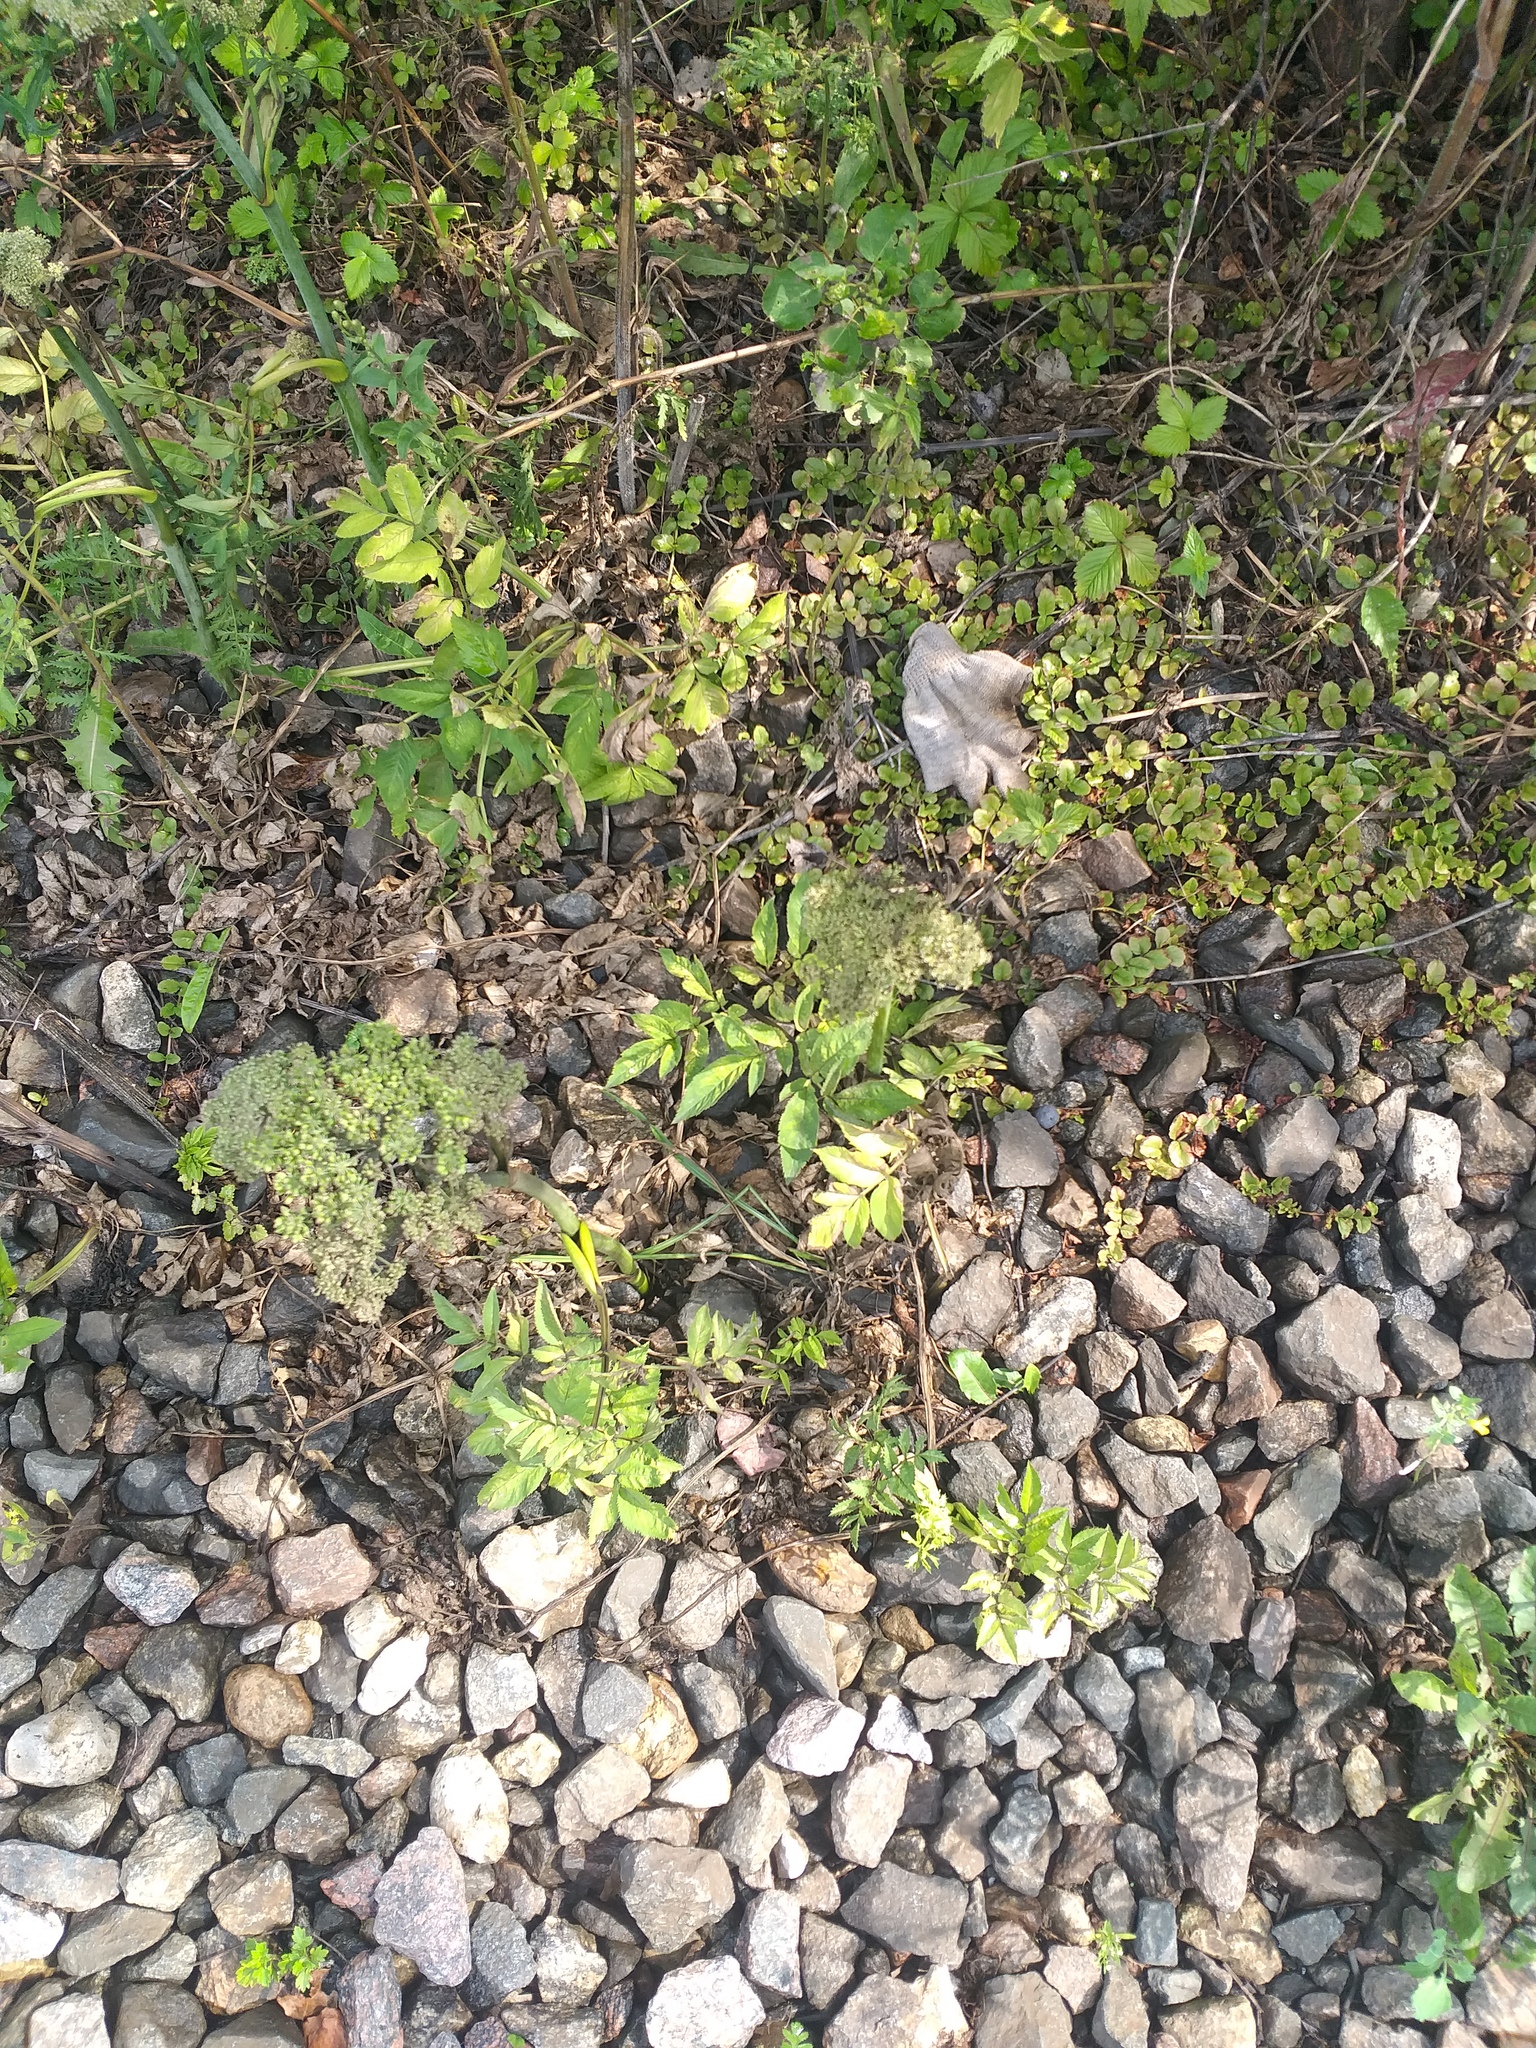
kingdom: Plantae
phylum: Tracheophyta
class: Magnoliopsida
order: Apiales
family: Apiaceae
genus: Angelica
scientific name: Angelica sylvestris
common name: Wild angelica
